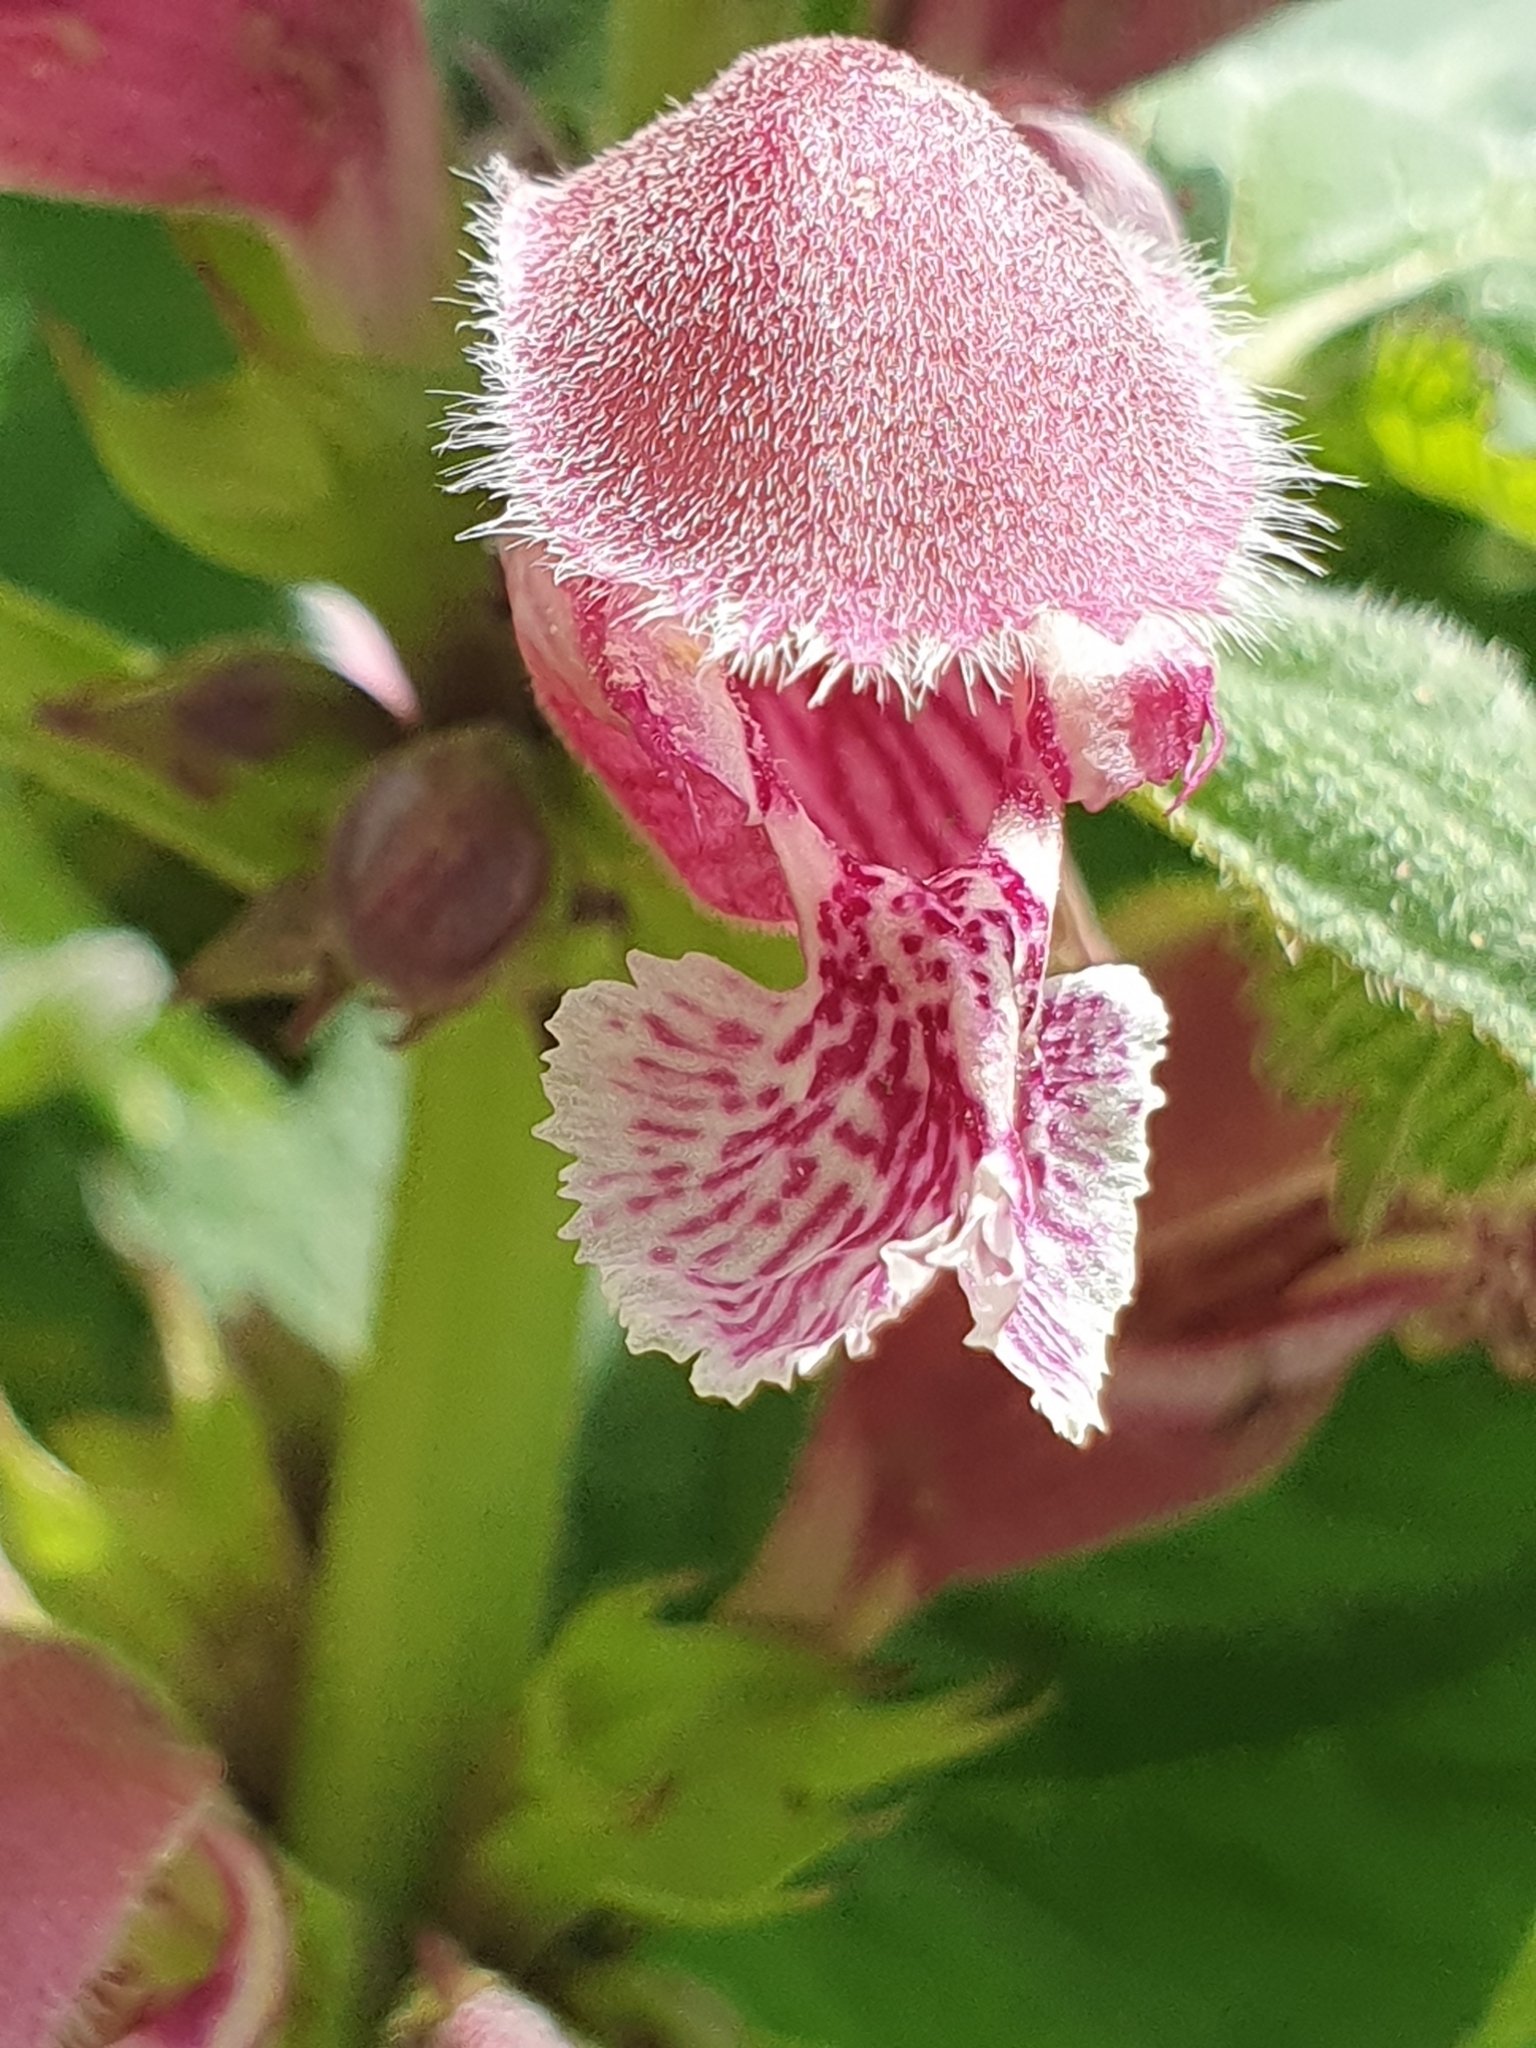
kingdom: Plantae
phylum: Tracheophyta
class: Magnoliopsida
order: Lamiales
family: Lamiaceae
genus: Lamium
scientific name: Lamium orvala
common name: Balm-leaved archangel
